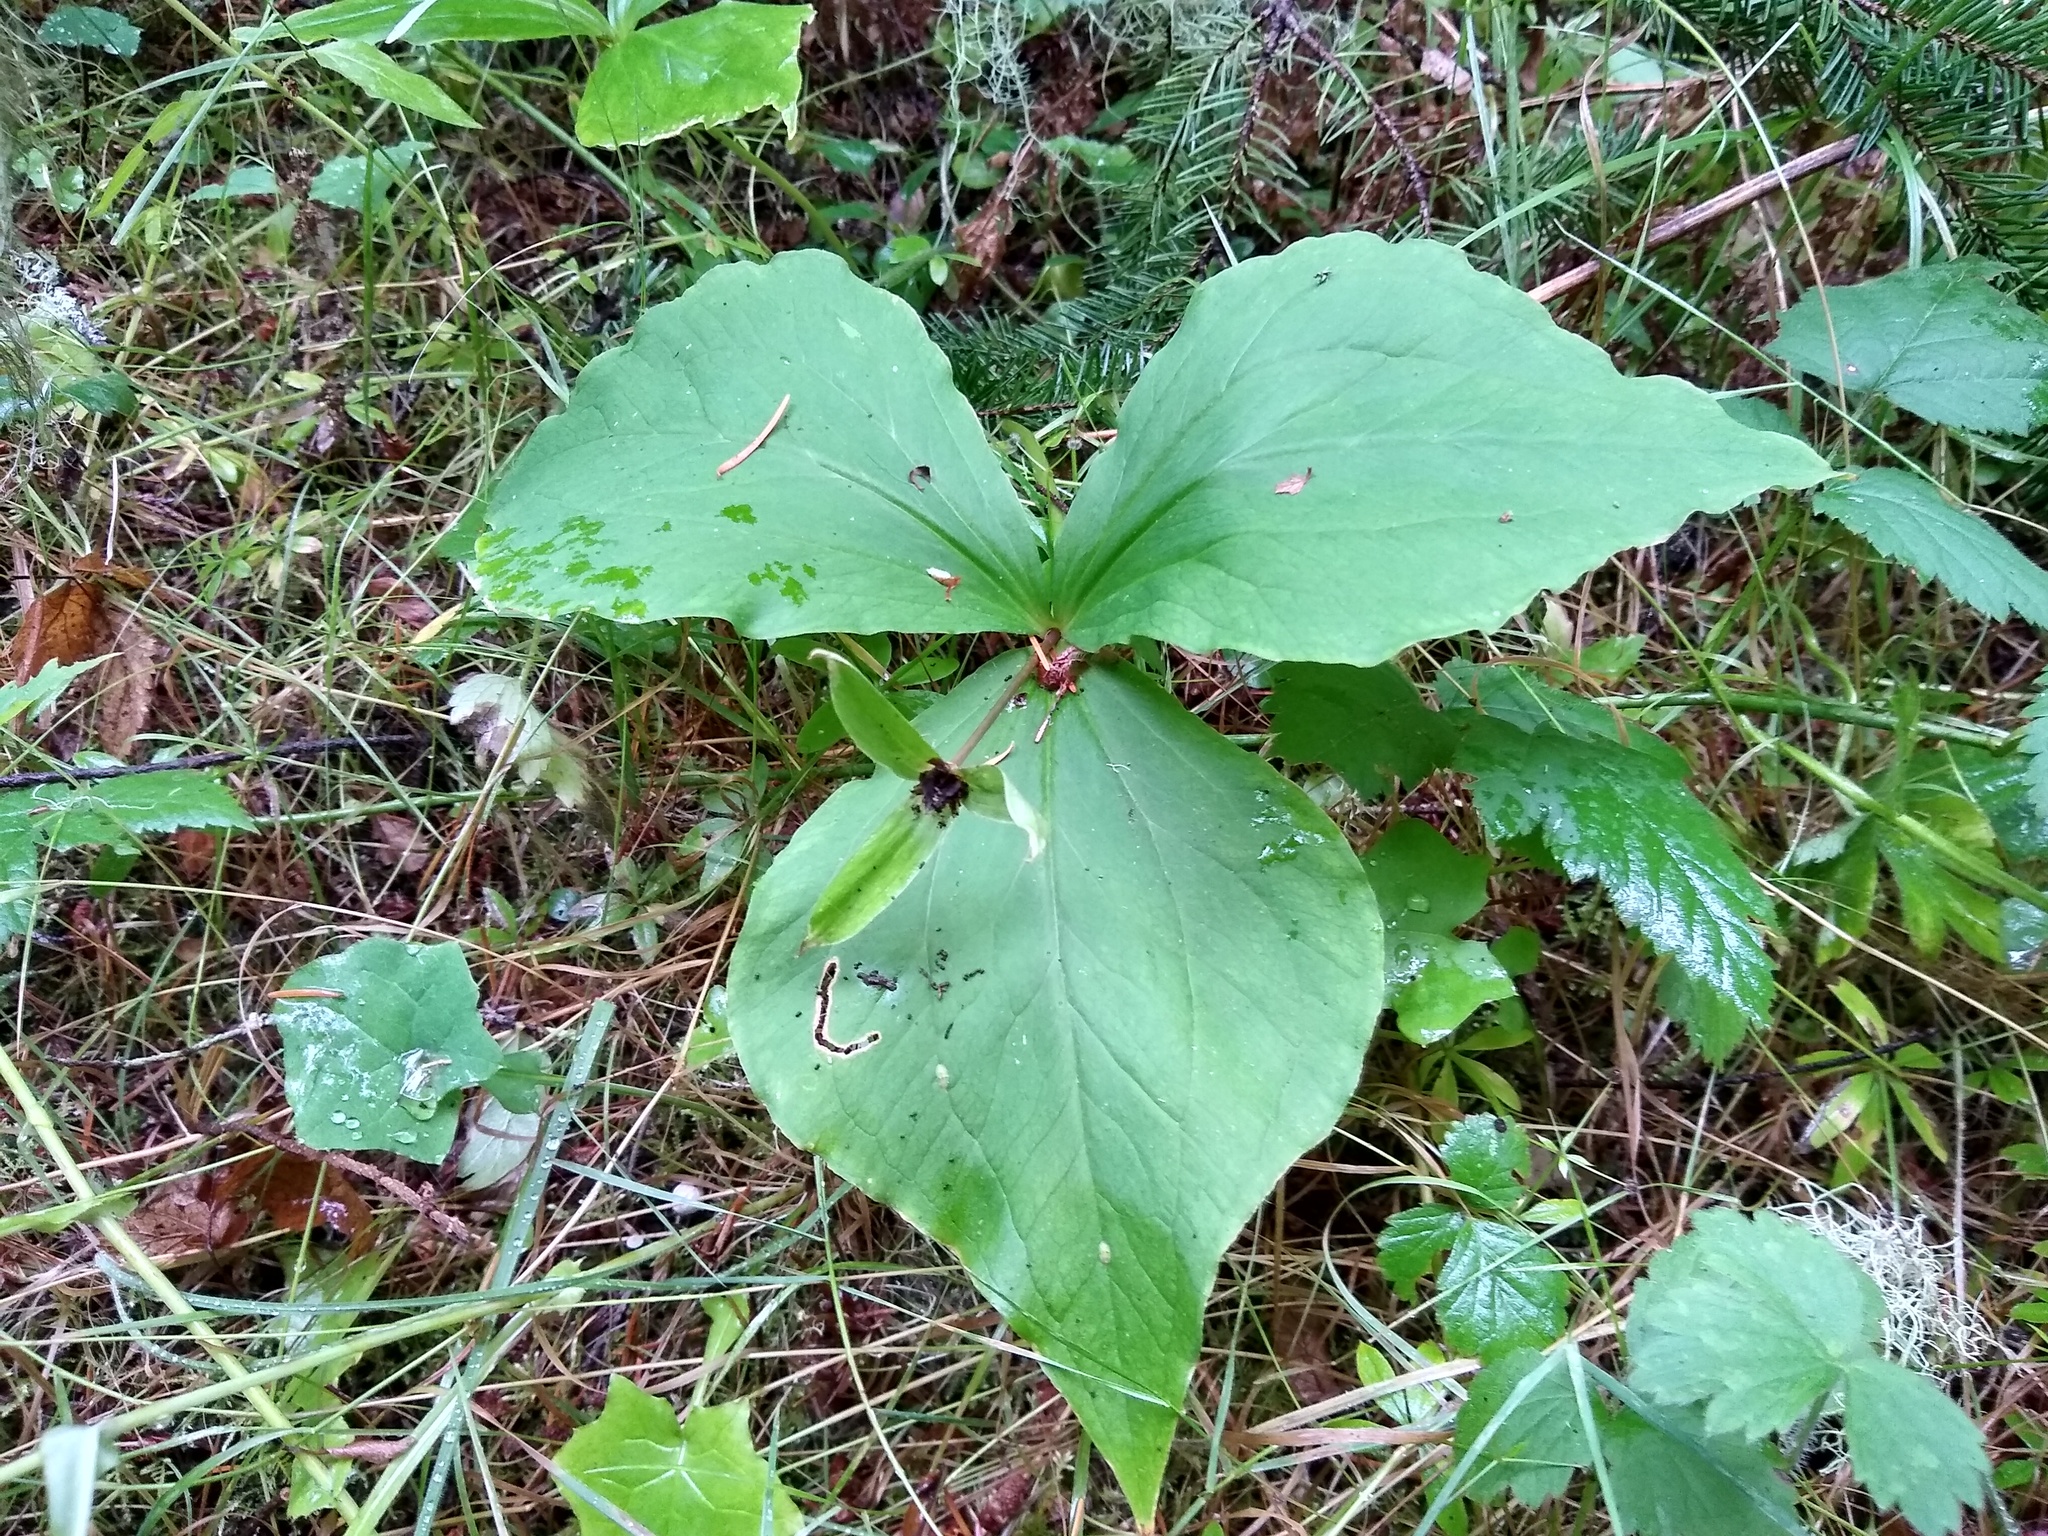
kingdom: Plantae
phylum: Tracheophyta
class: Liliopsida
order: Liliales
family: Melanthiaceae
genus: Trillium
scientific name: Trillium ovatum
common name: Pacific trillium
